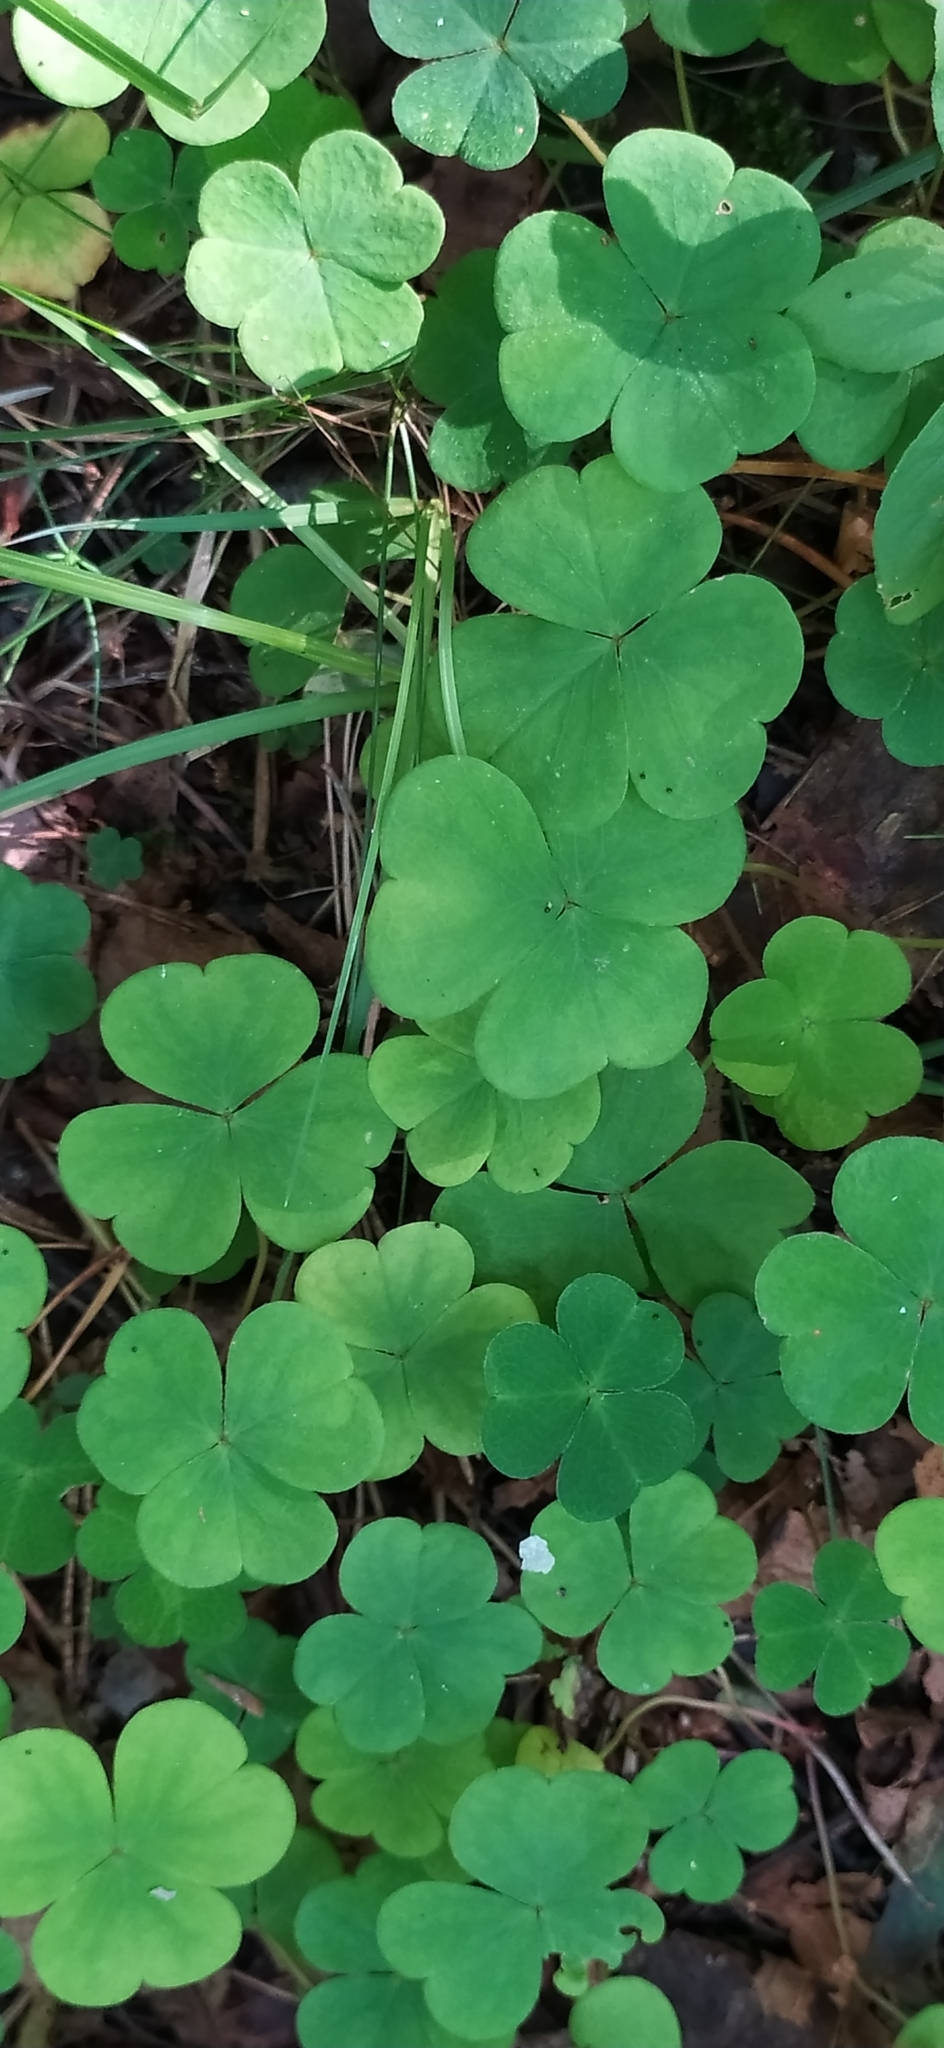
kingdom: Plantae
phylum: Tracheophyta
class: Magnoliopsida
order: Oxalidales
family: Oxalidaceae
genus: Oxalis
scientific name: Oxalis acetosella
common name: Wood-sorrel
